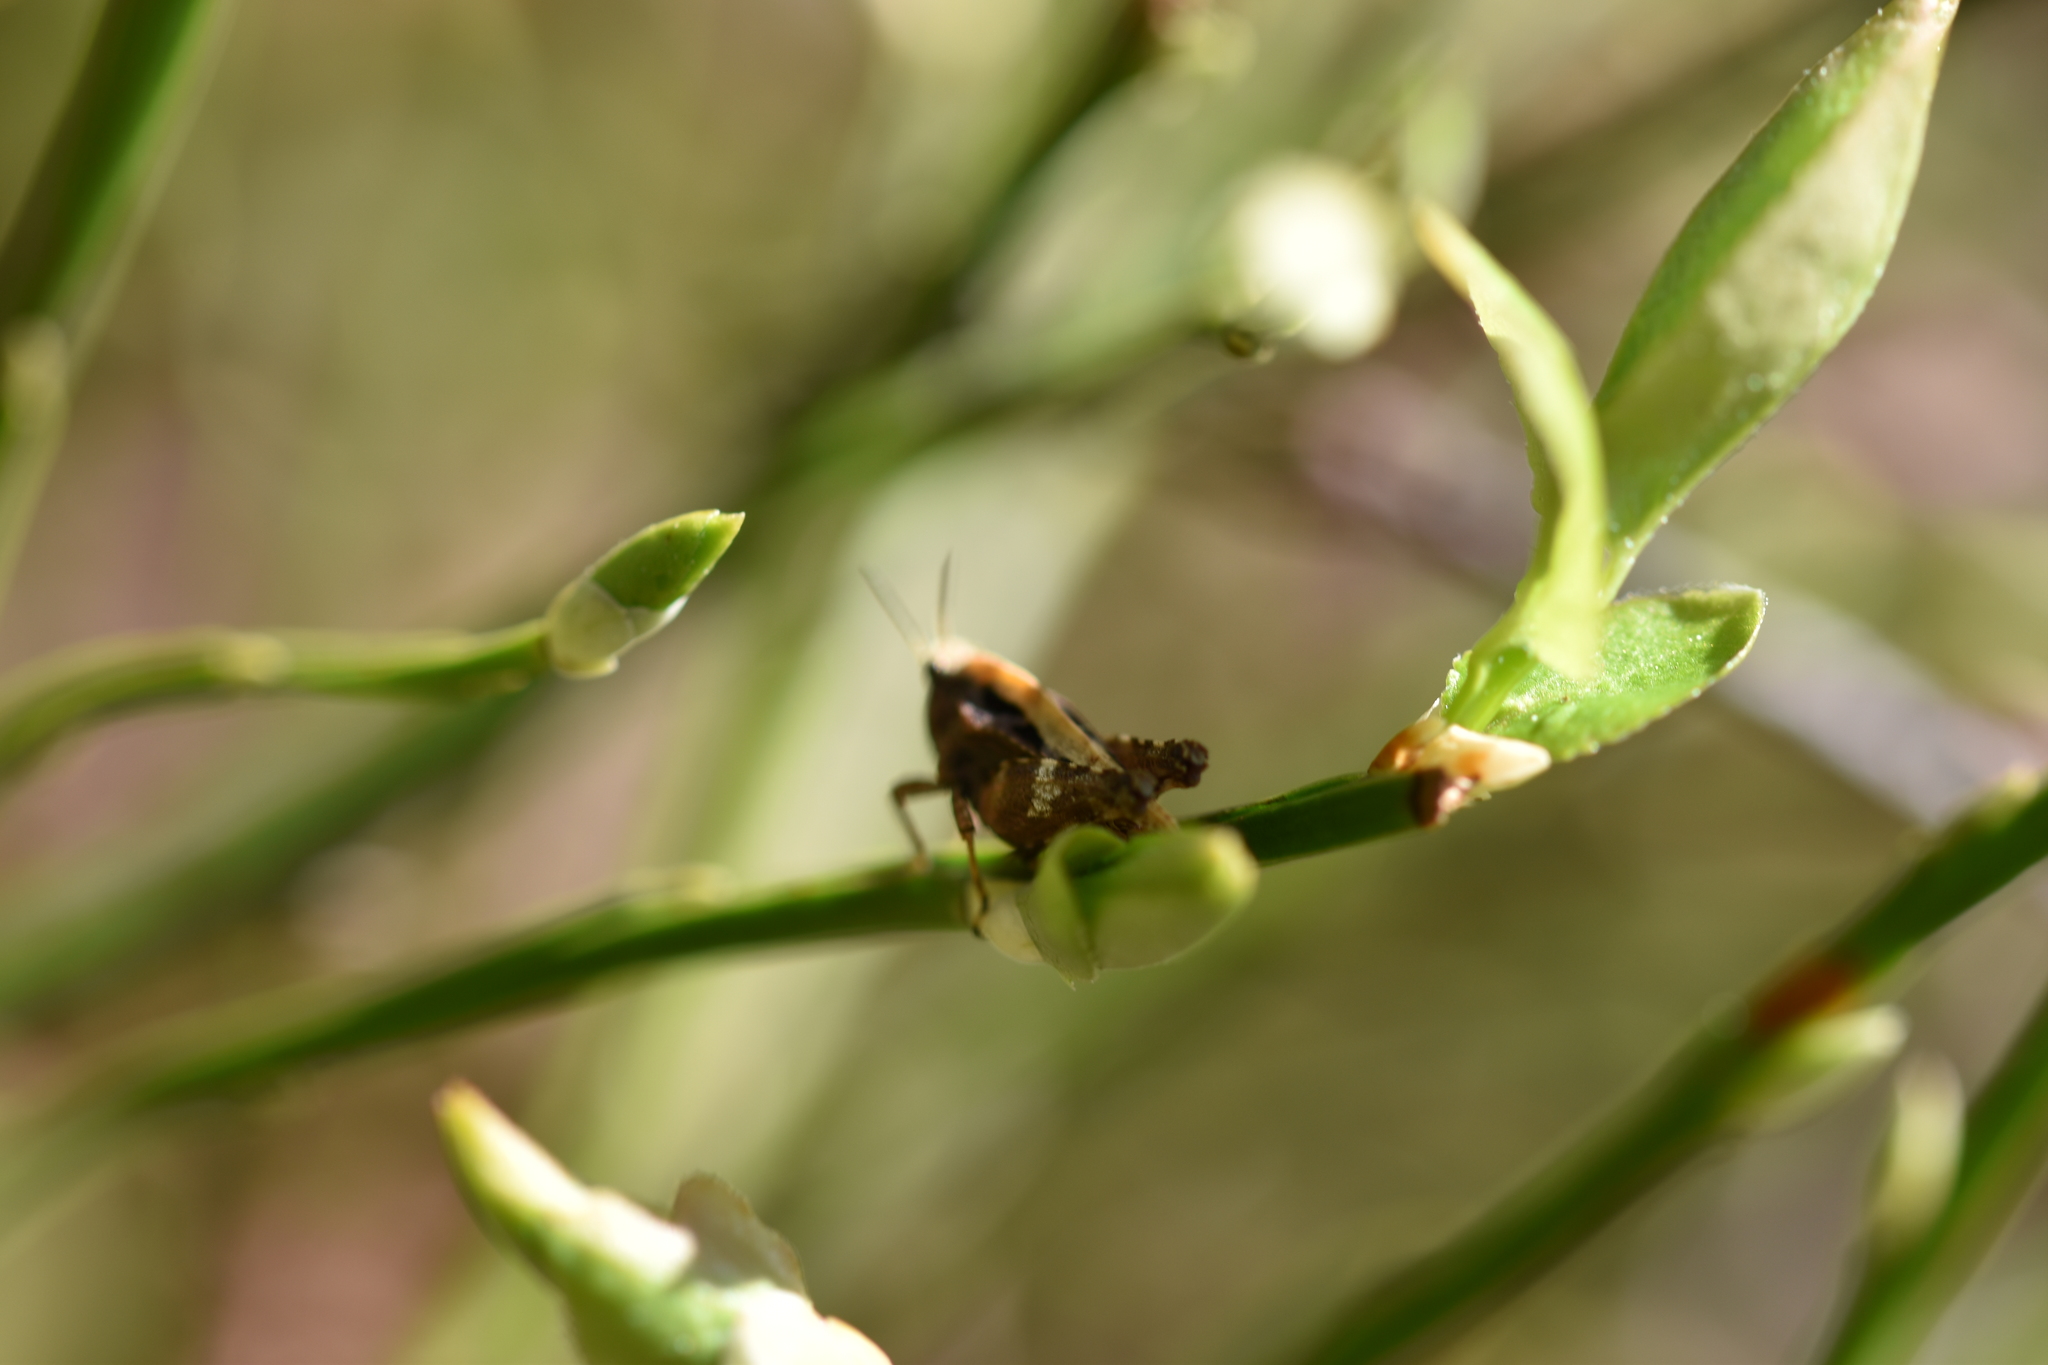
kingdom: Animalia
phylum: Arthropoda
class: Insecta
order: Orthoptera
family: Tetrigidae
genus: Tetrix
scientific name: Tetrix undulata
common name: Common groundhopper
